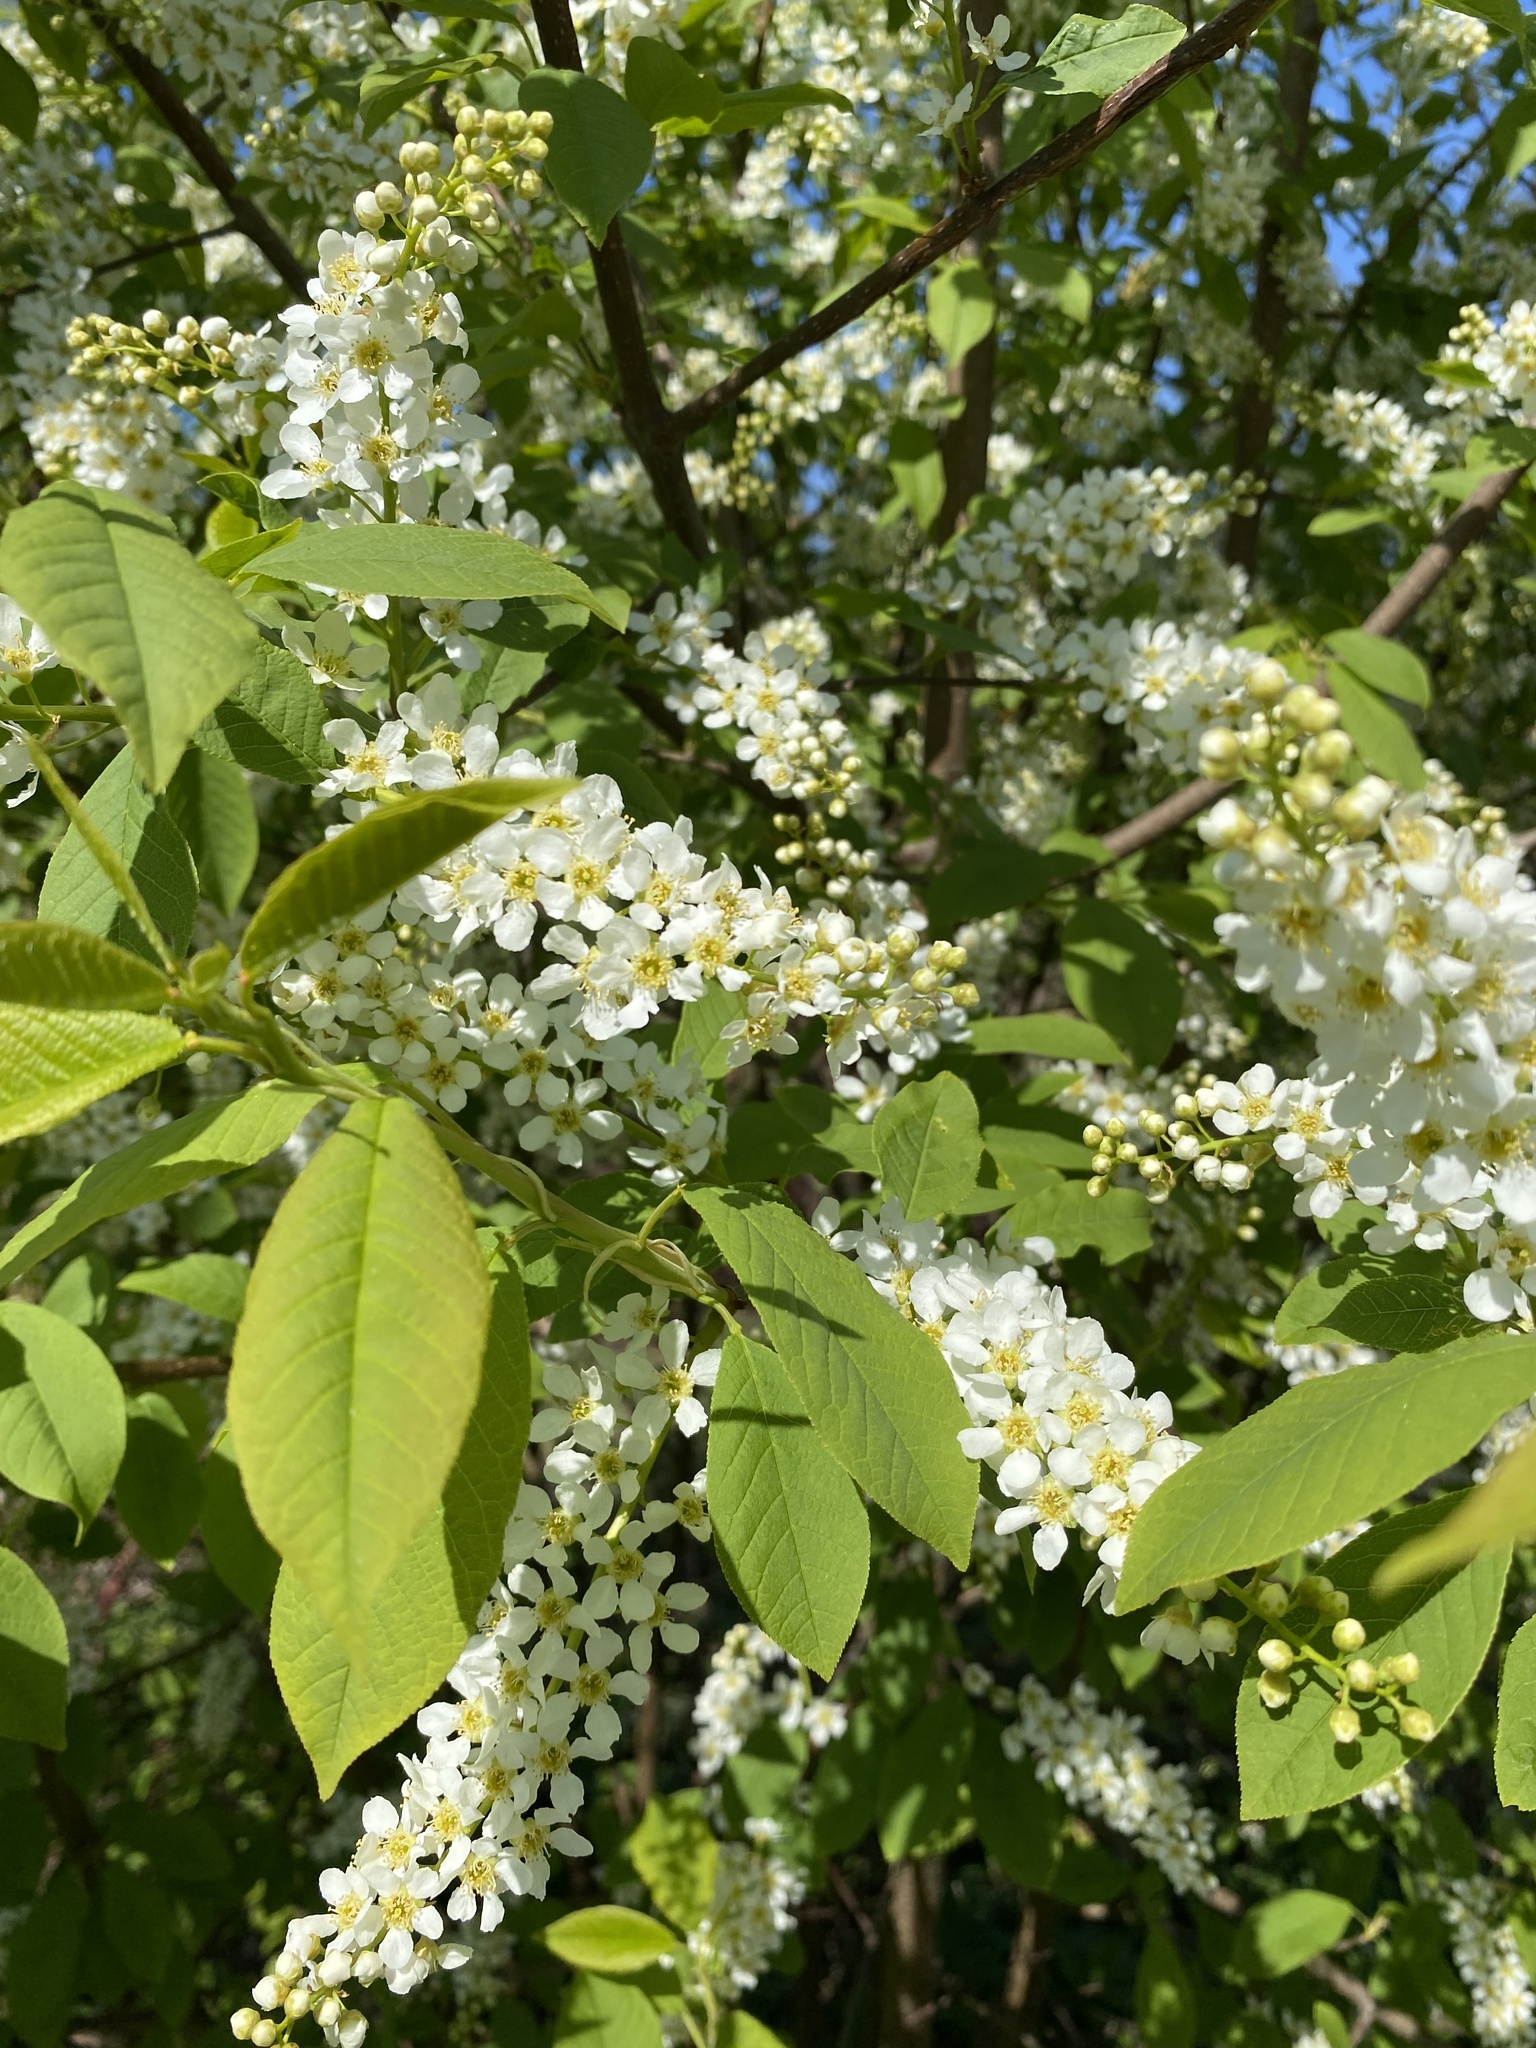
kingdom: Plantae
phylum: Tracheophyta
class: Magnoliopsida
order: Rosales
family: Rosaceae
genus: Prunus
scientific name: Prunus padus
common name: Bird cherry
